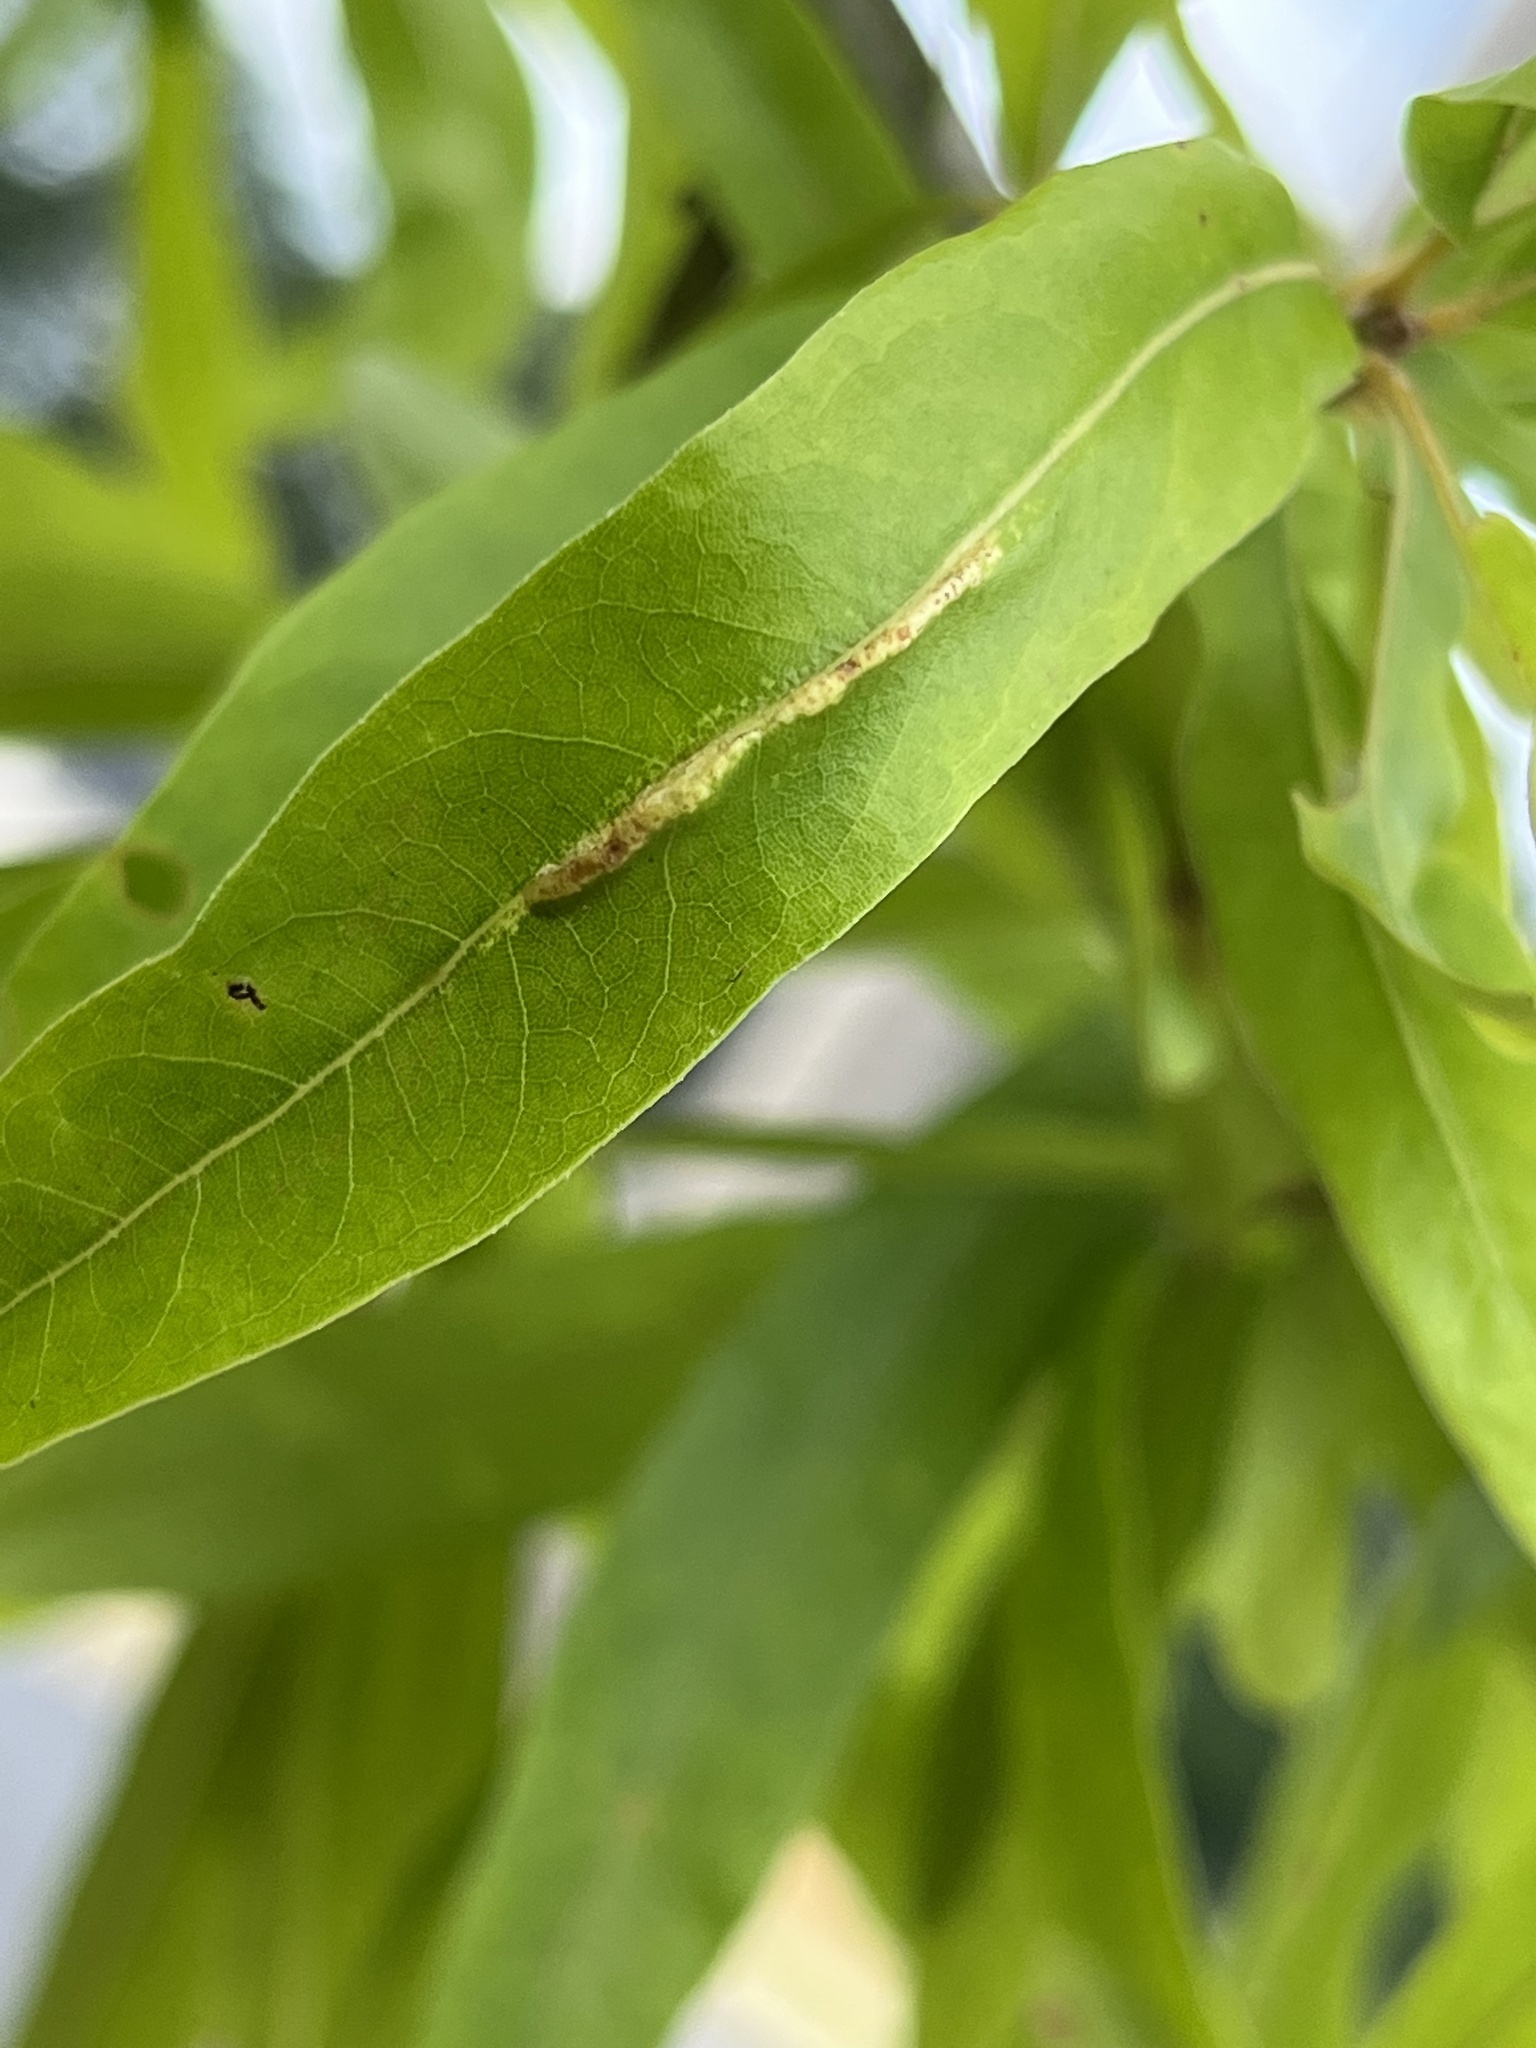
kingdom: Animalia
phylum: Arthropoda
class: Insecta
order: Diptera
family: Cecidomyiidae
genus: Macrodiplosis
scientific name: Macrodiplosis q-orucum
